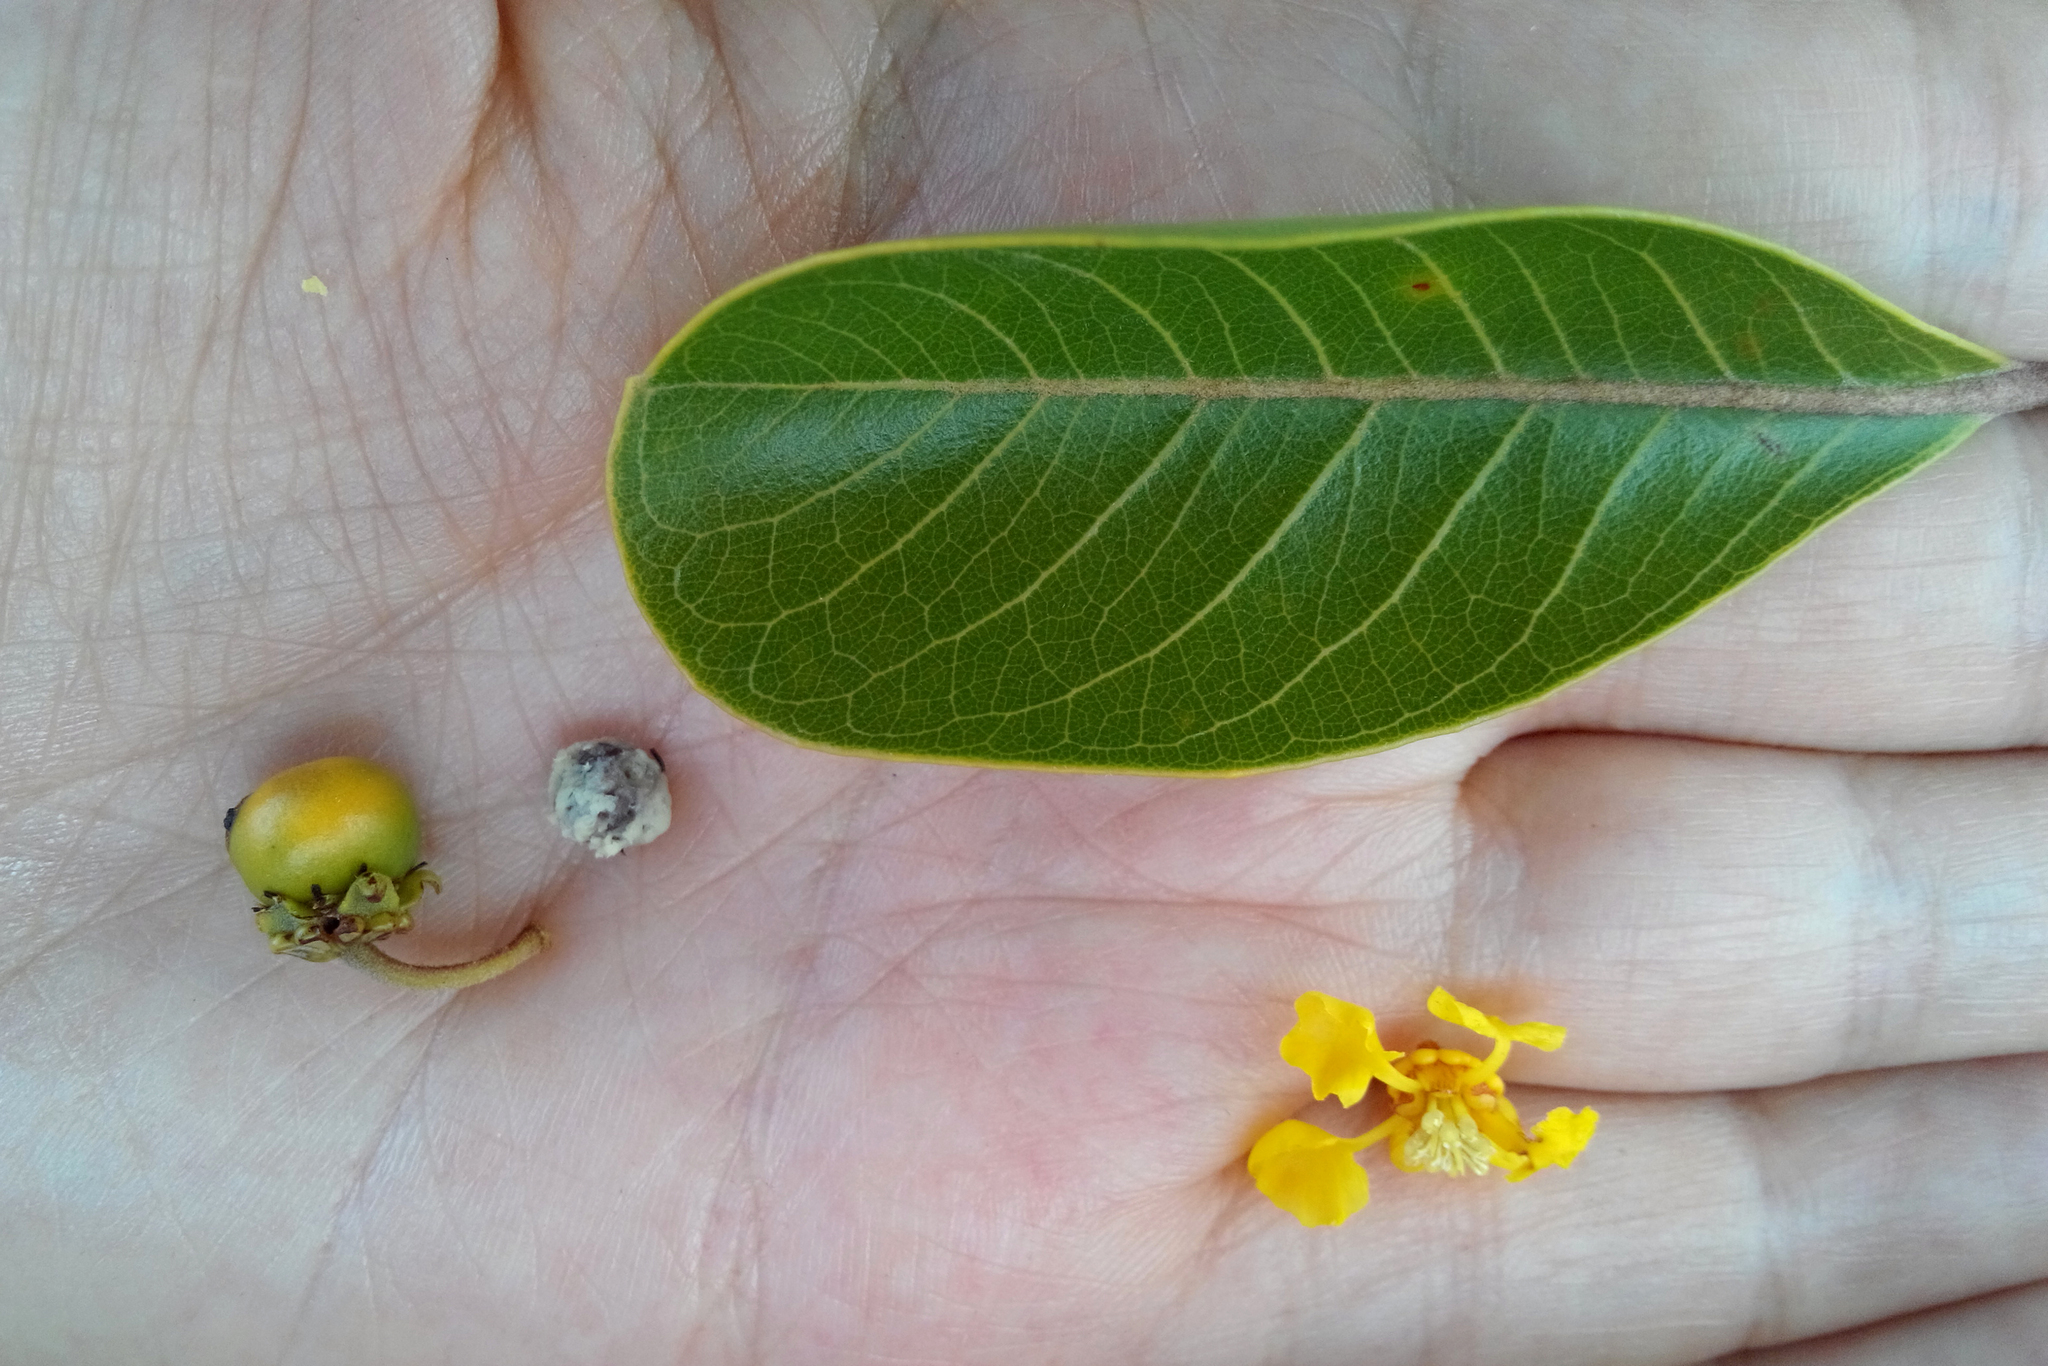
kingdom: Plantae
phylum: Tracheophyta
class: Magnoliopsida
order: Malpighiales
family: Malpighiaceae
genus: Byrsonima
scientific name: Byrsonima crassifolia
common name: Golden spoon
